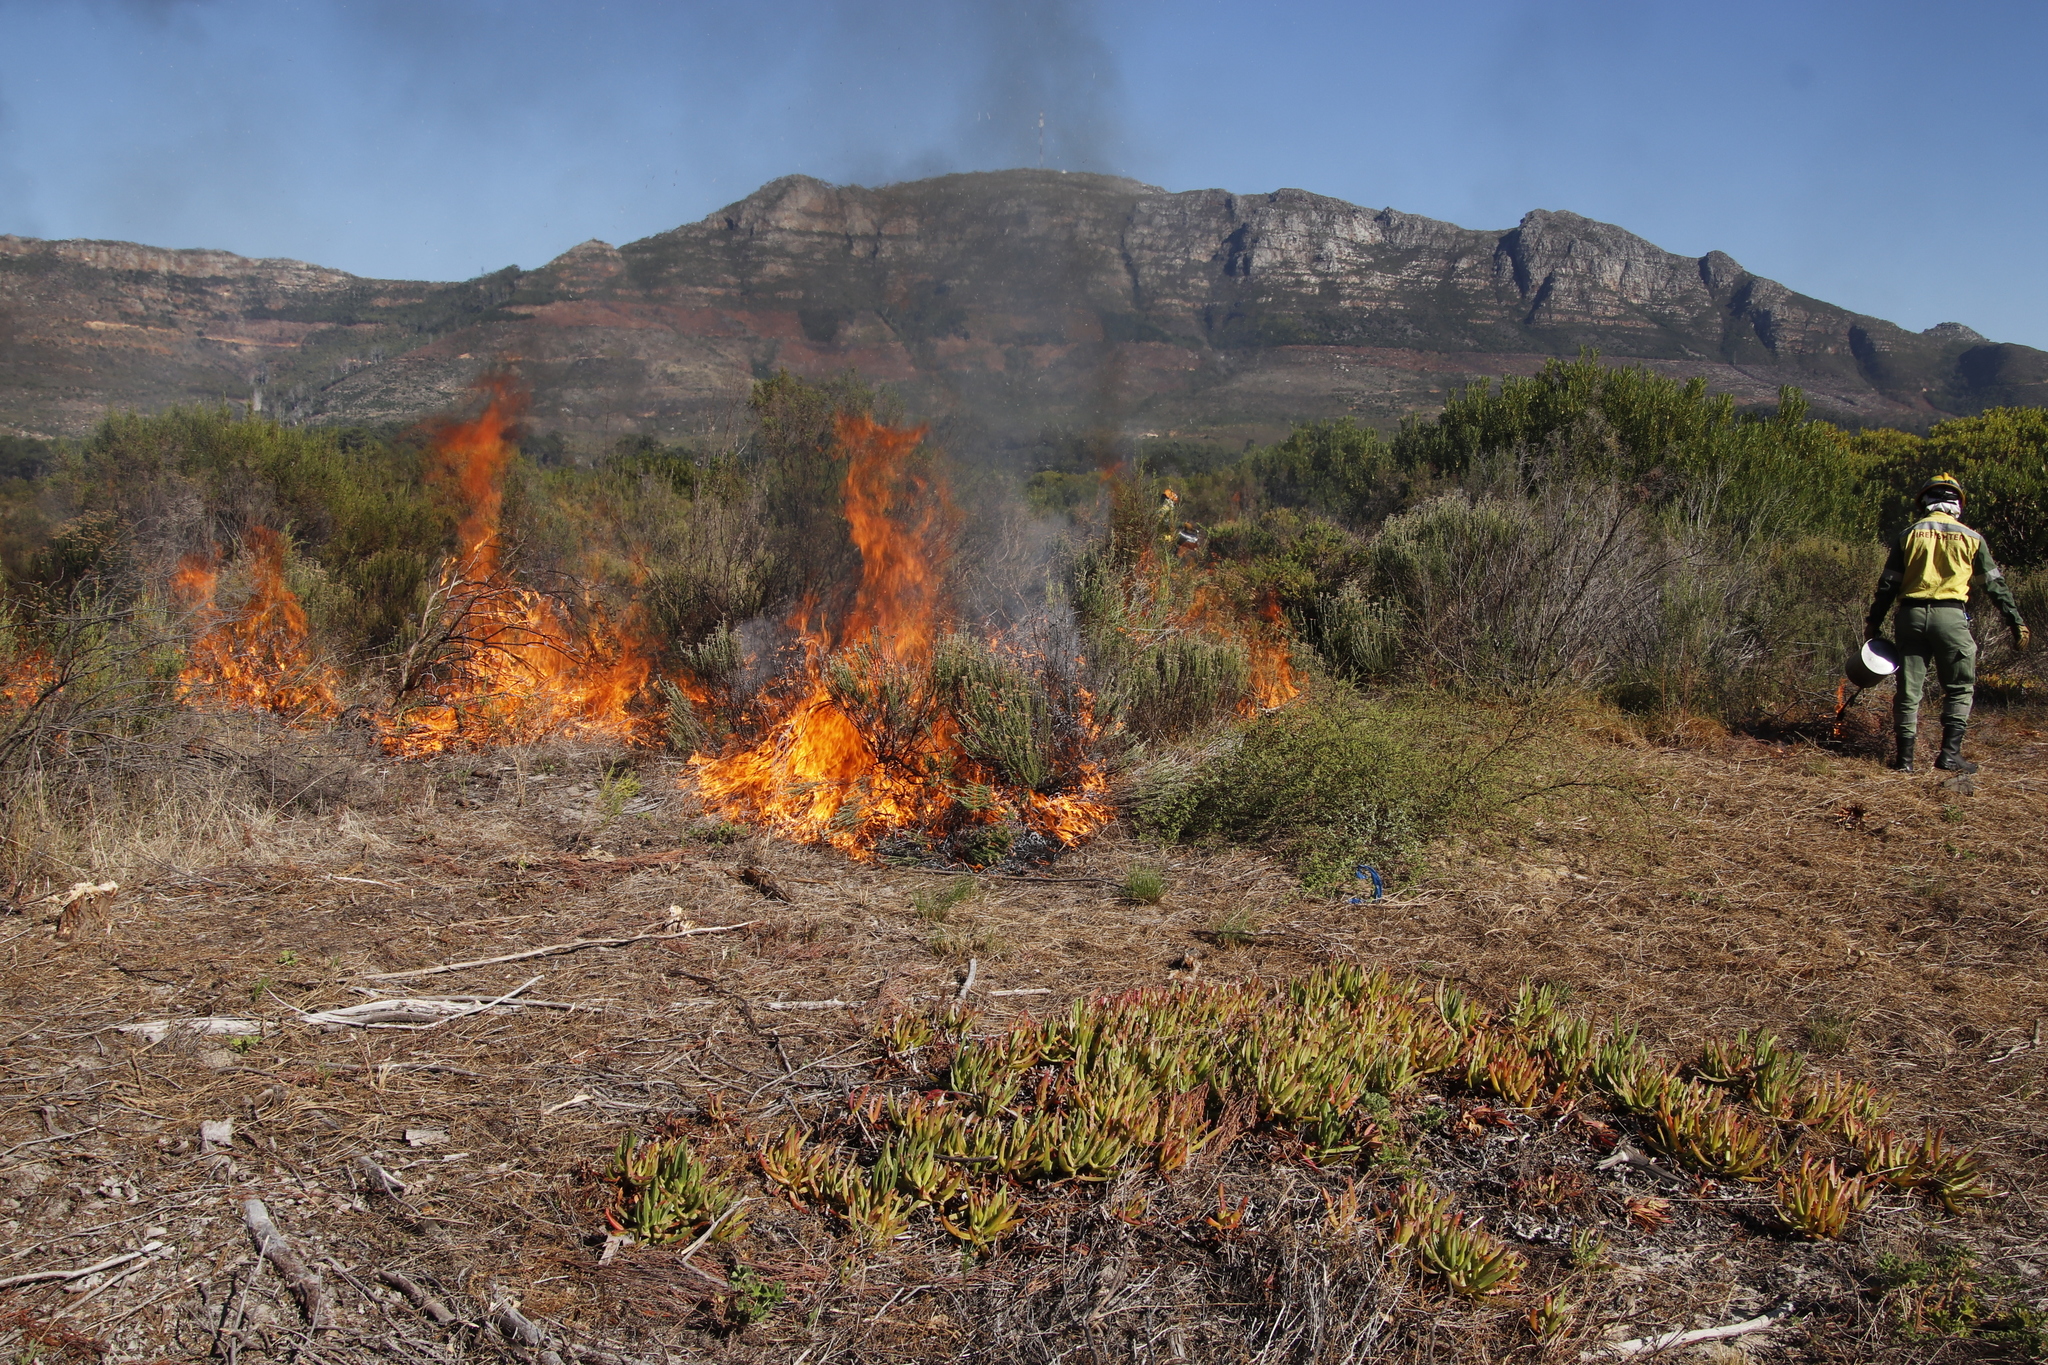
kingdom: Plantae
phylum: Tracheophyta
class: Magnoliopsida
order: Caryophyllales
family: Aizoaceae
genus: Carpobrotus
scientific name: Carpobrotus edulis
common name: Hottentot-fig
